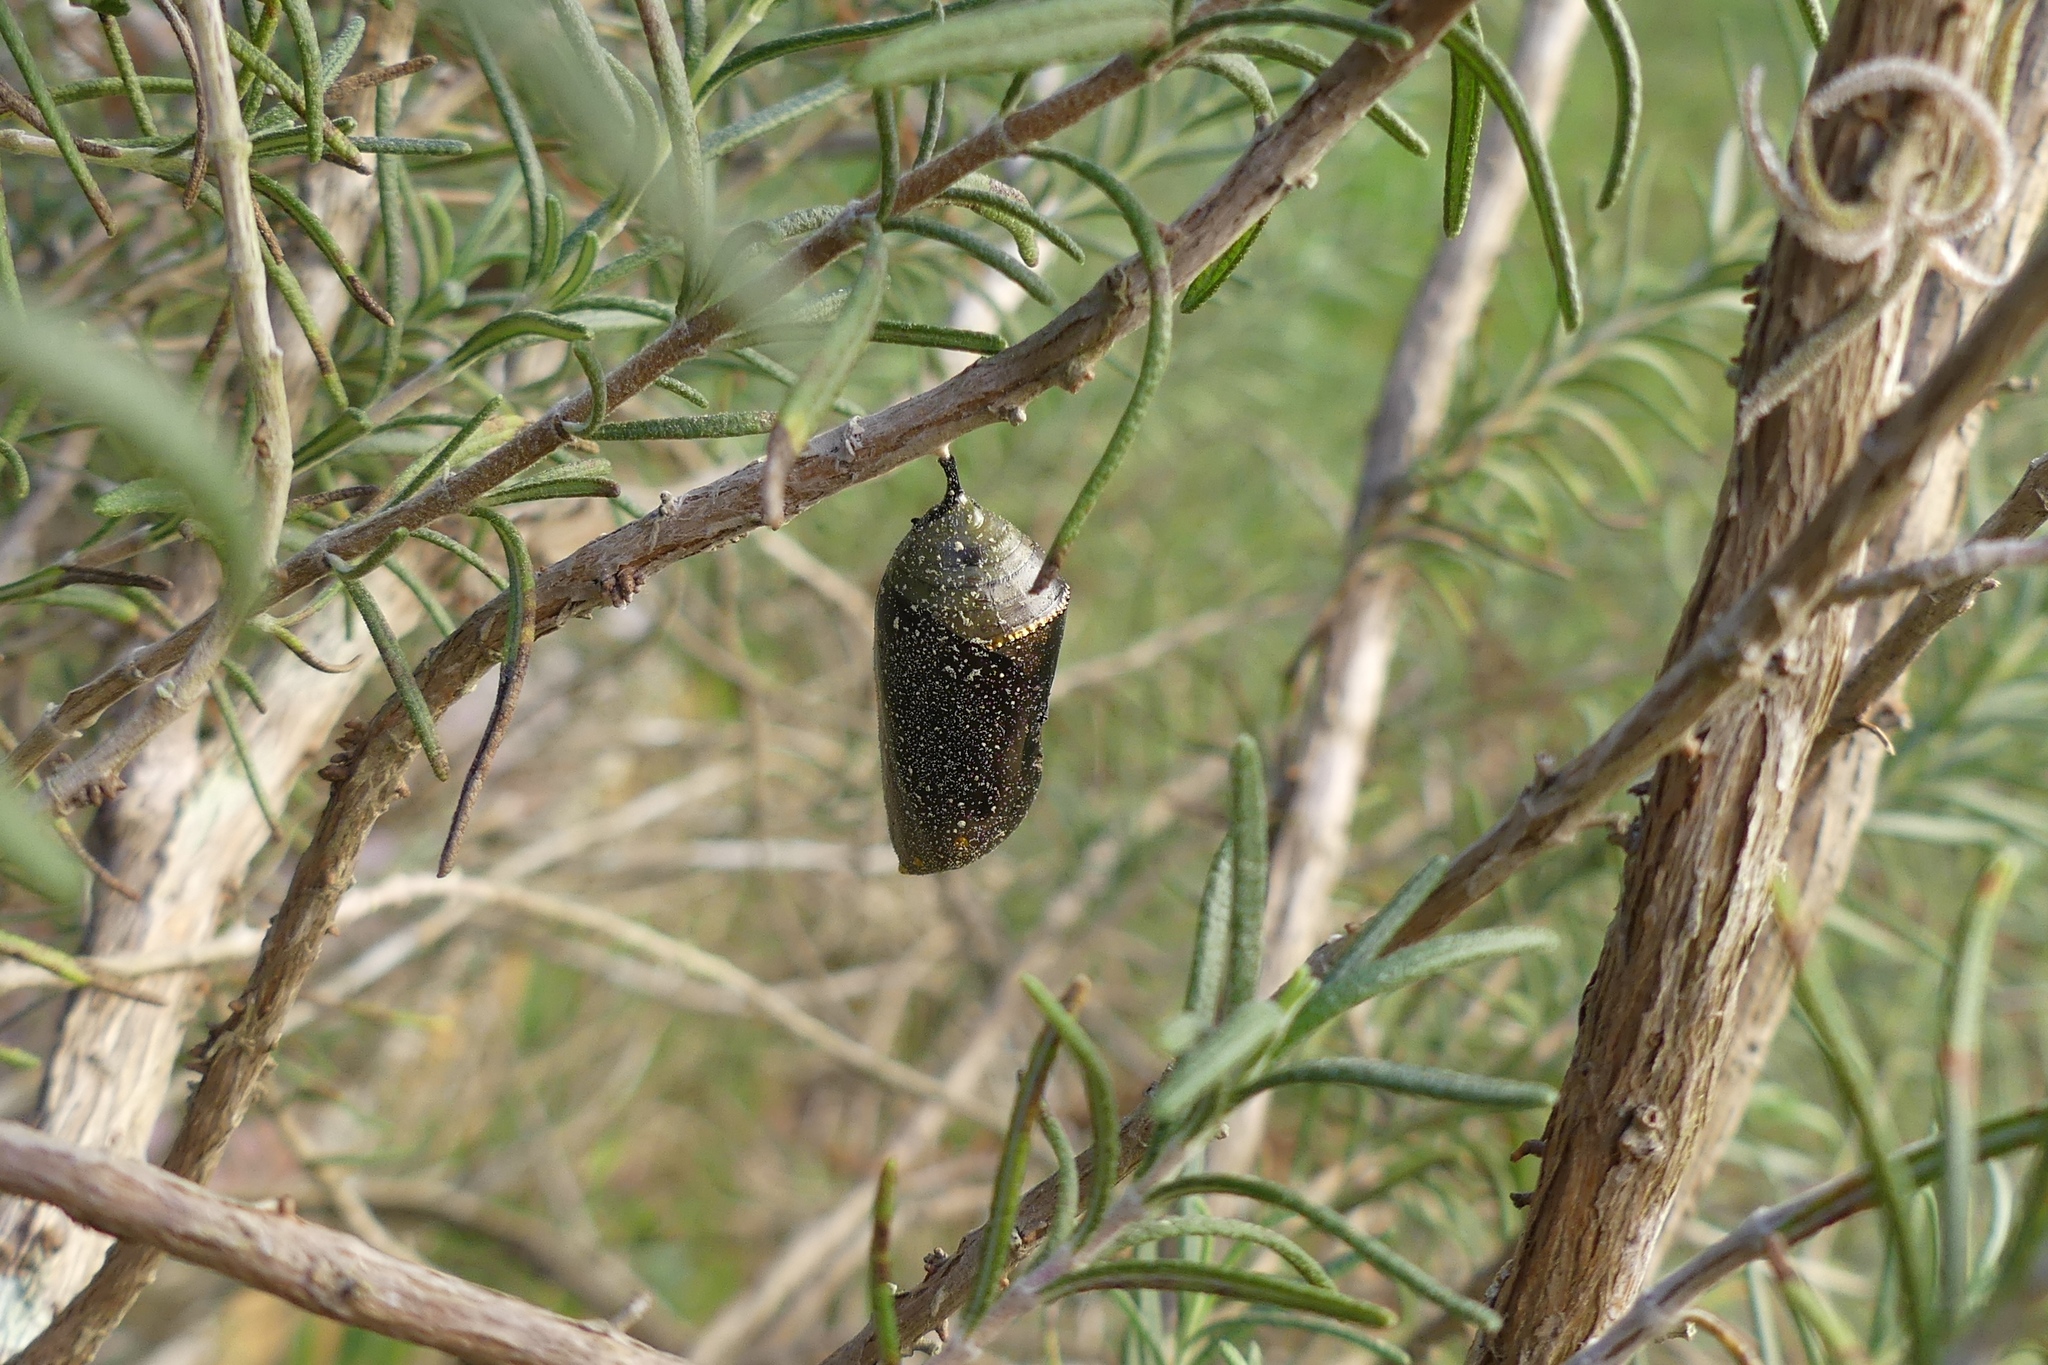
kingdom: Animalia
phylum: Arthropoda
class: Insecta
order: Lepidoptera
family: Nymphalidae
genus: Danaus
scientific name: Danaus plexippus
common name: Monarch
